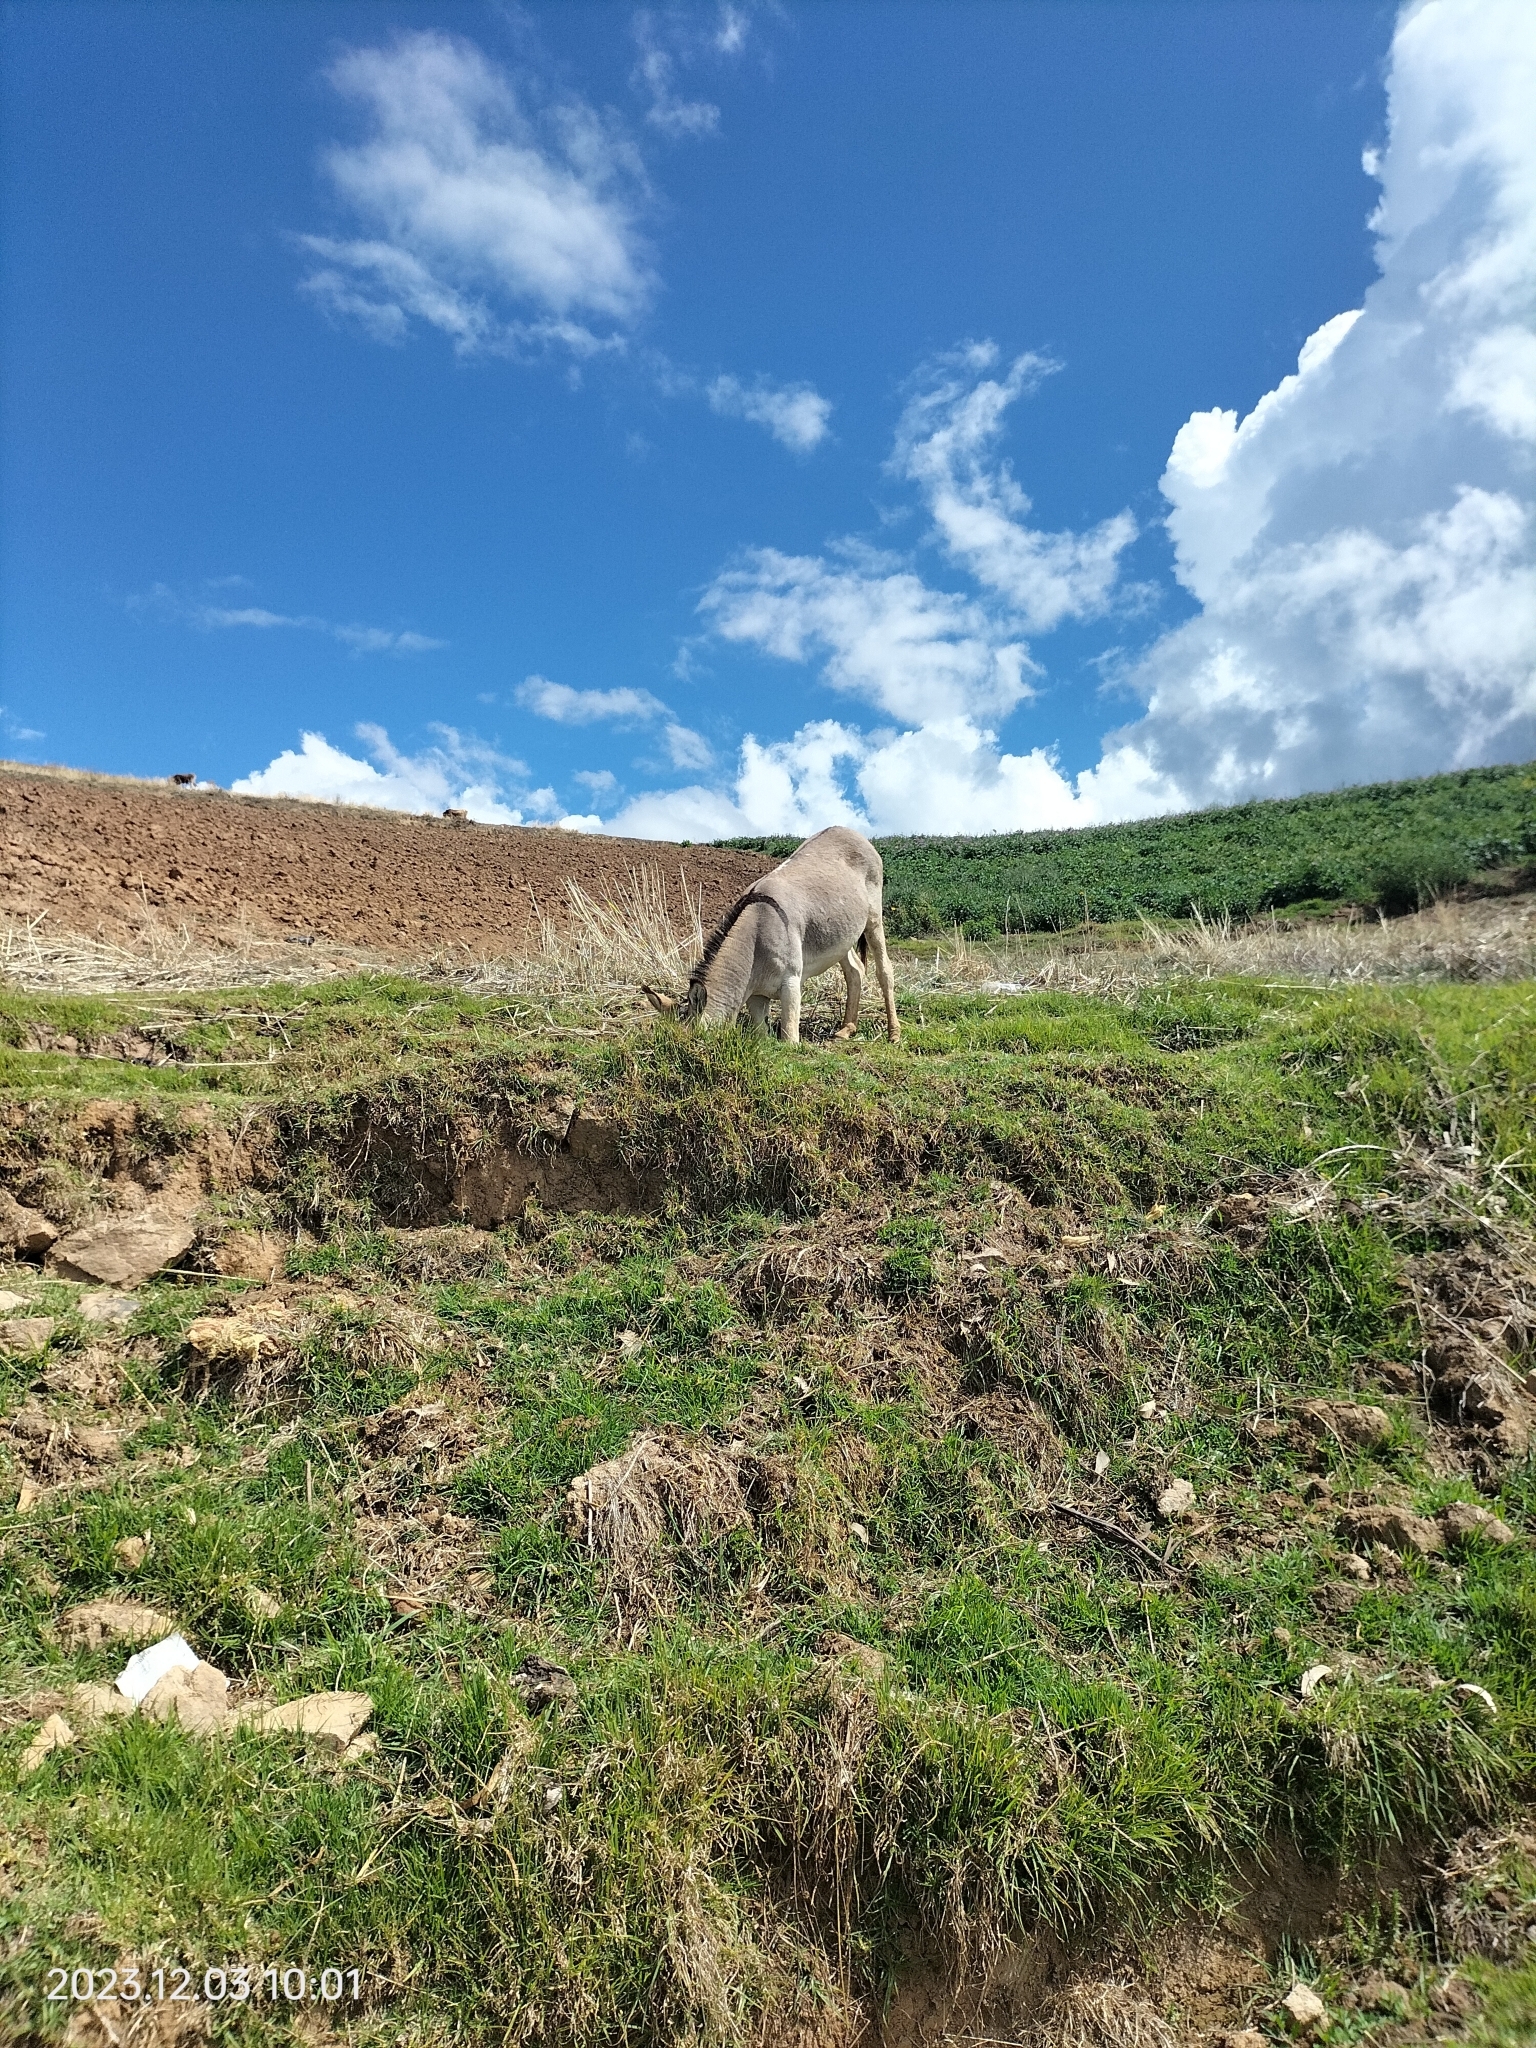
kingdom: Animalia
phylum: Chordata
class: Mammalia
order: Perissodactyla
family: Equidae
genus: Equus
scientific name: Equus asinus
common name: Ass
